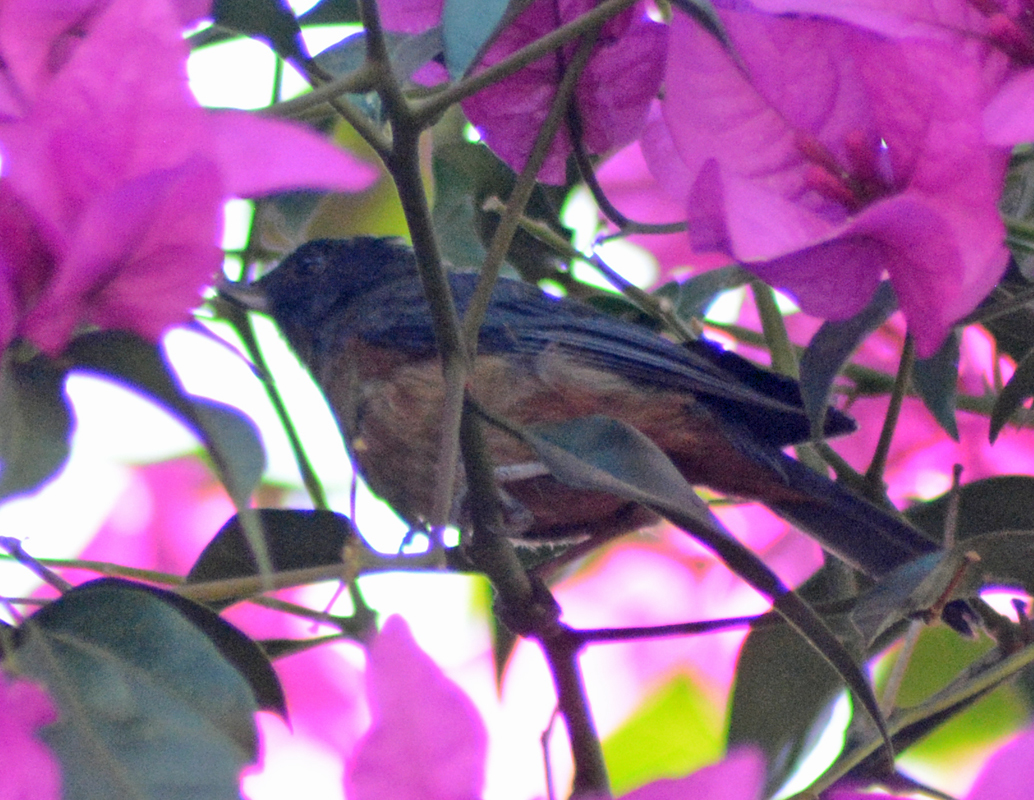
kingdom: Animalia
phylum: Chordata
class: Aves
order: Passeriformes
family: Thraupidae
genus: Diglossa
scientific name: Diglossa baritula
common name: Cinnamon-bellied flowerpiercer
